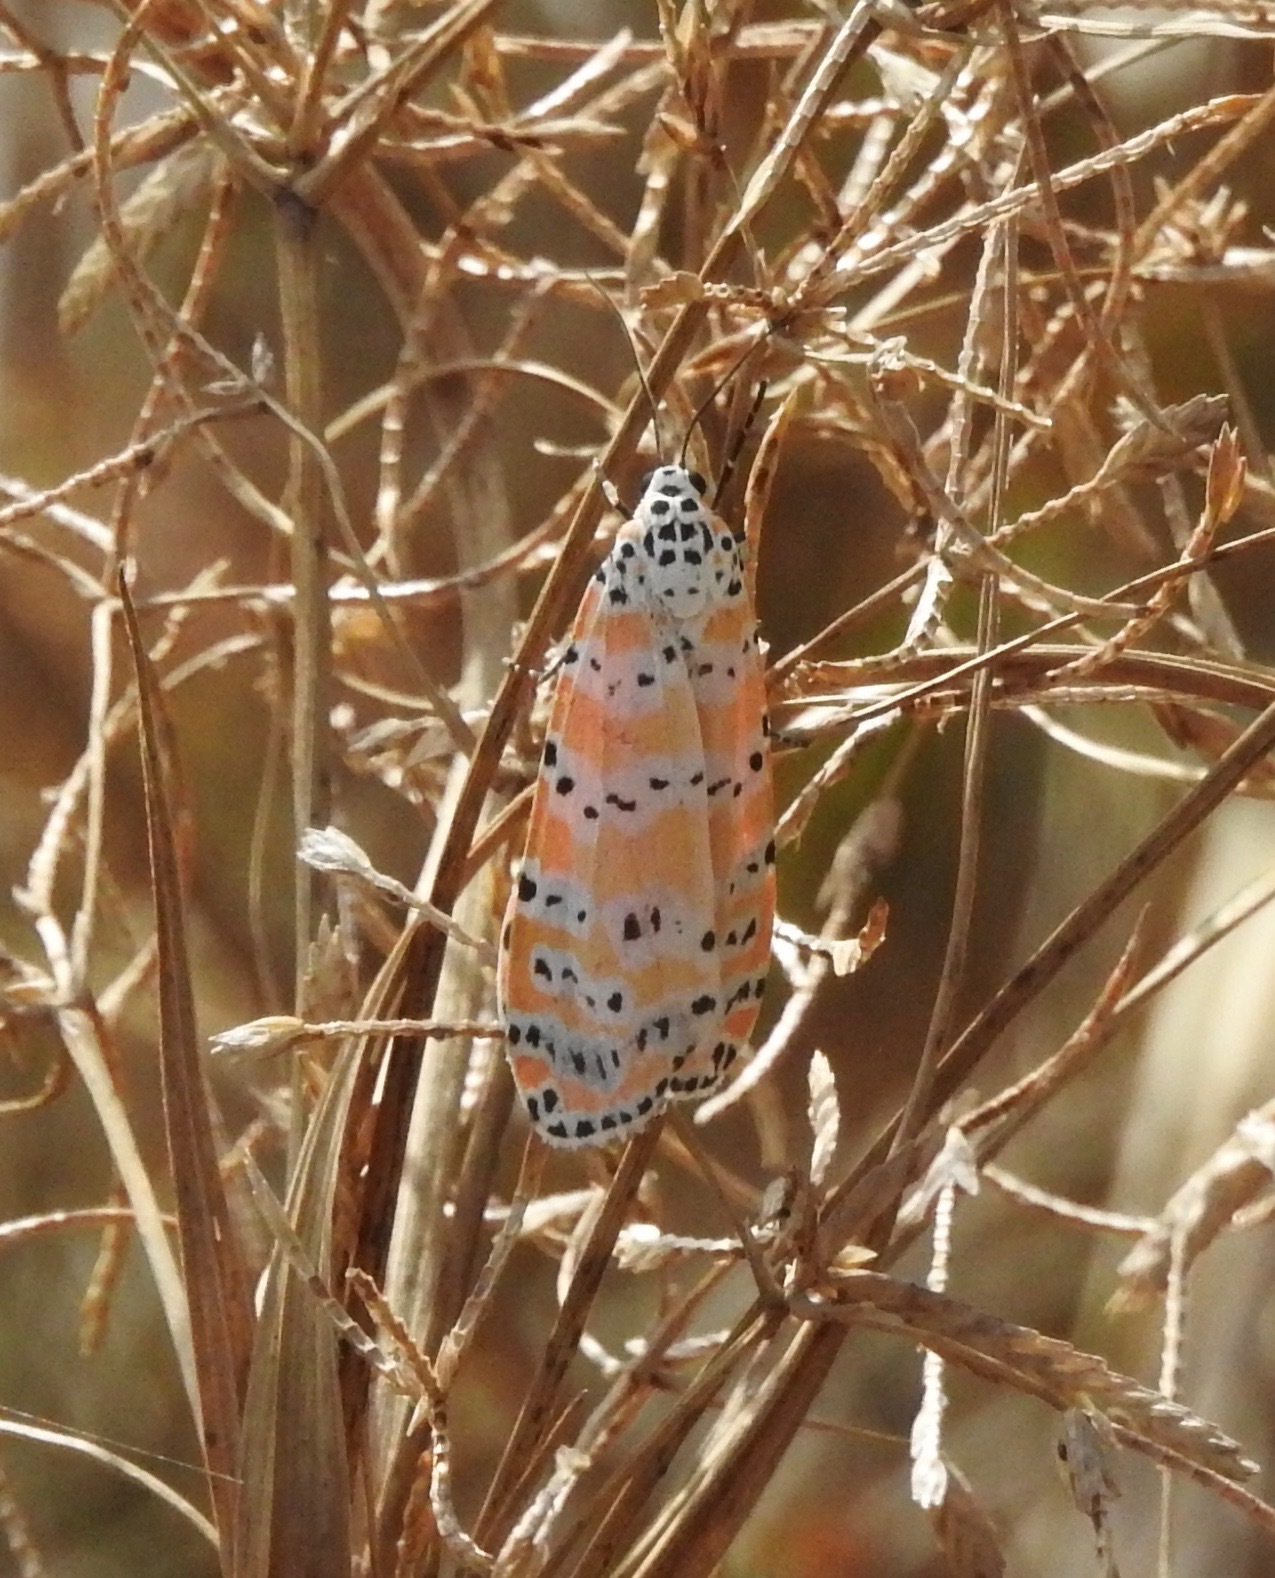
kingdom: Animalia
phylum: Arthropoda
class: Insecta
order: Lepidoptera
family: Erebidae
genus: Utetheisa
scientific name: Utetheisa ornatrix
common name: Beautiful utetheisa
